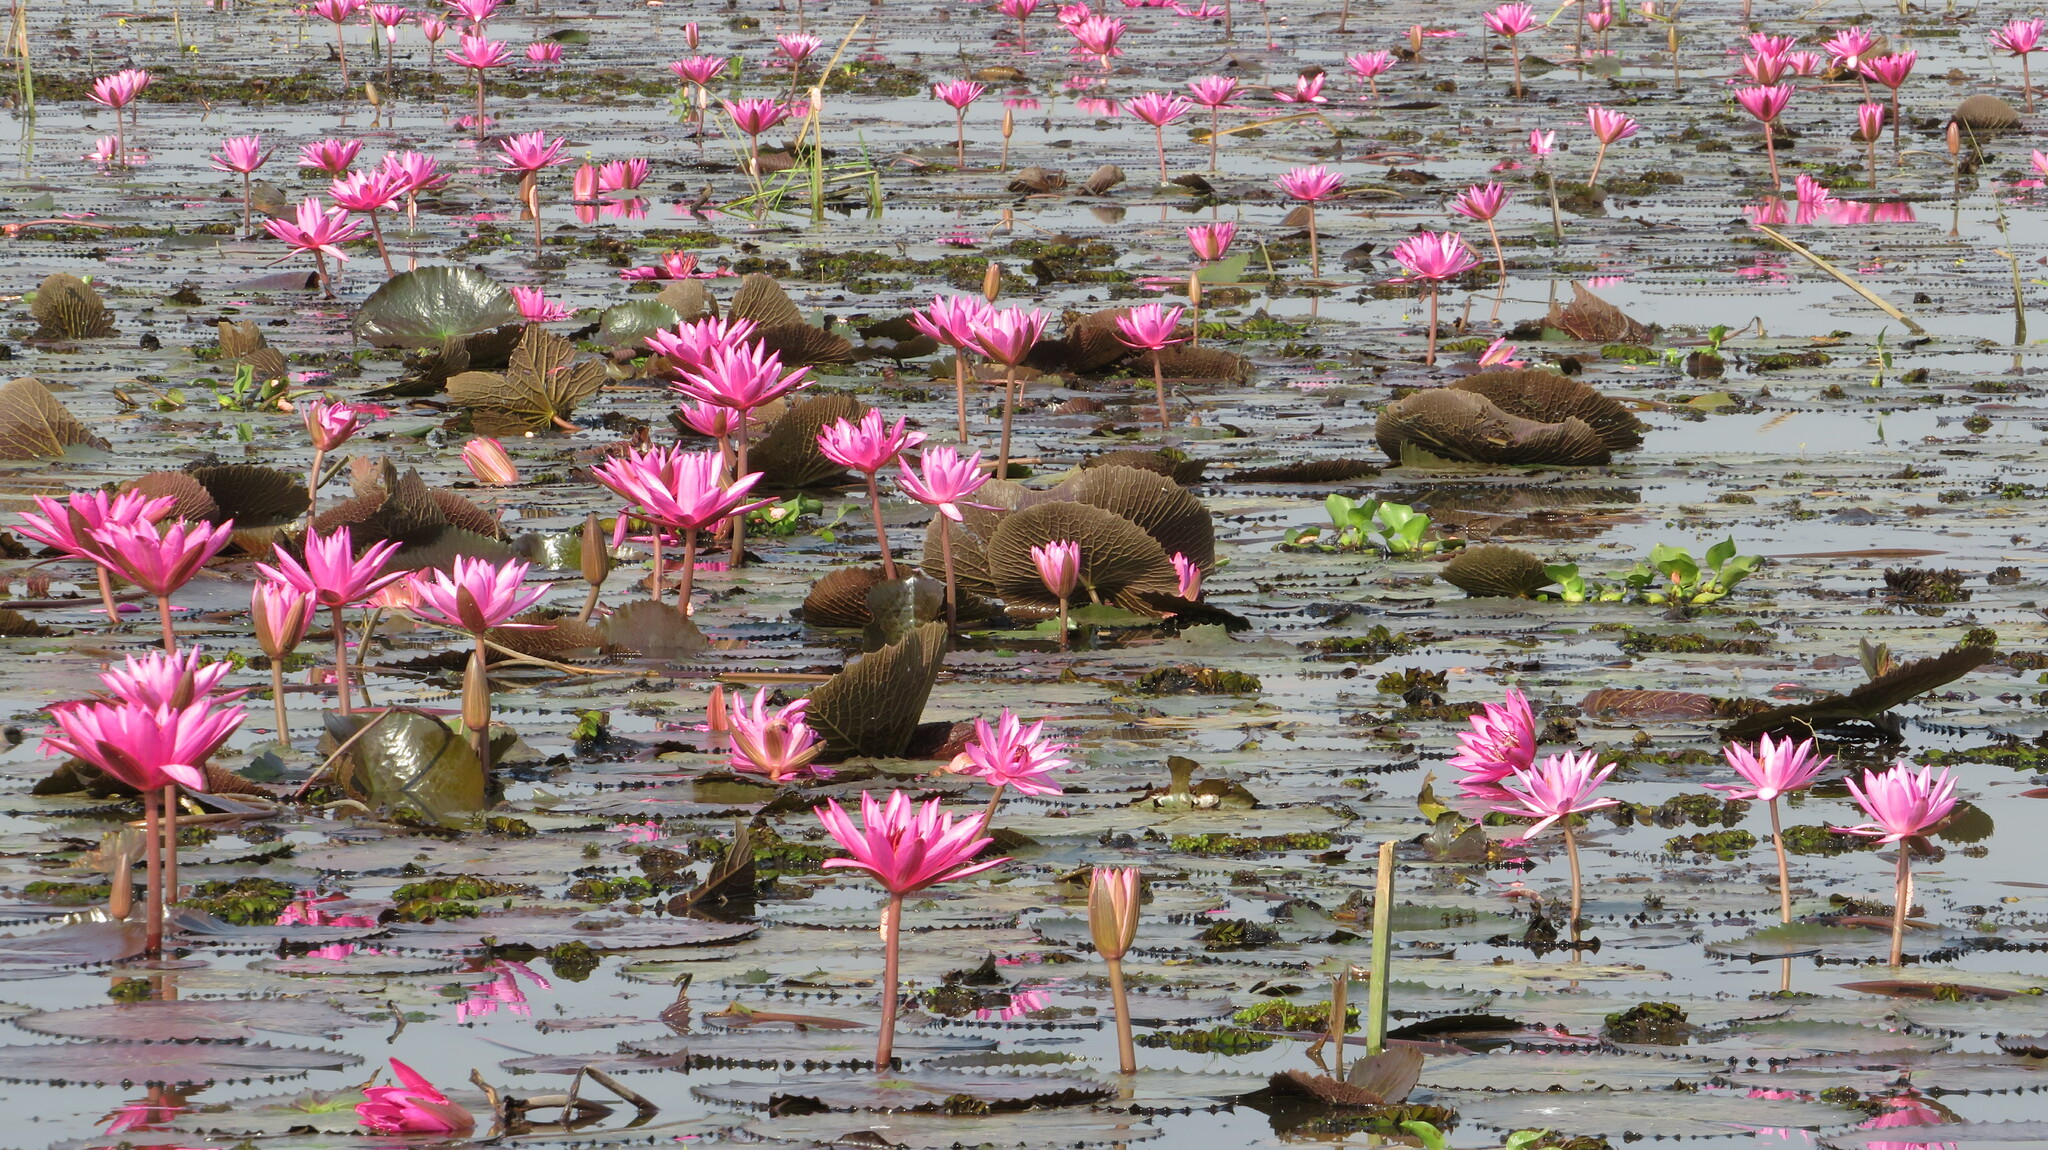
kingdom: Plantae
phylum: Tracheophyta
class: Magnoliopsida
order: Nymphaeales
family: Nymphaeaceae
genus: Nymphaea
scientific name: Nymphaea rubra
